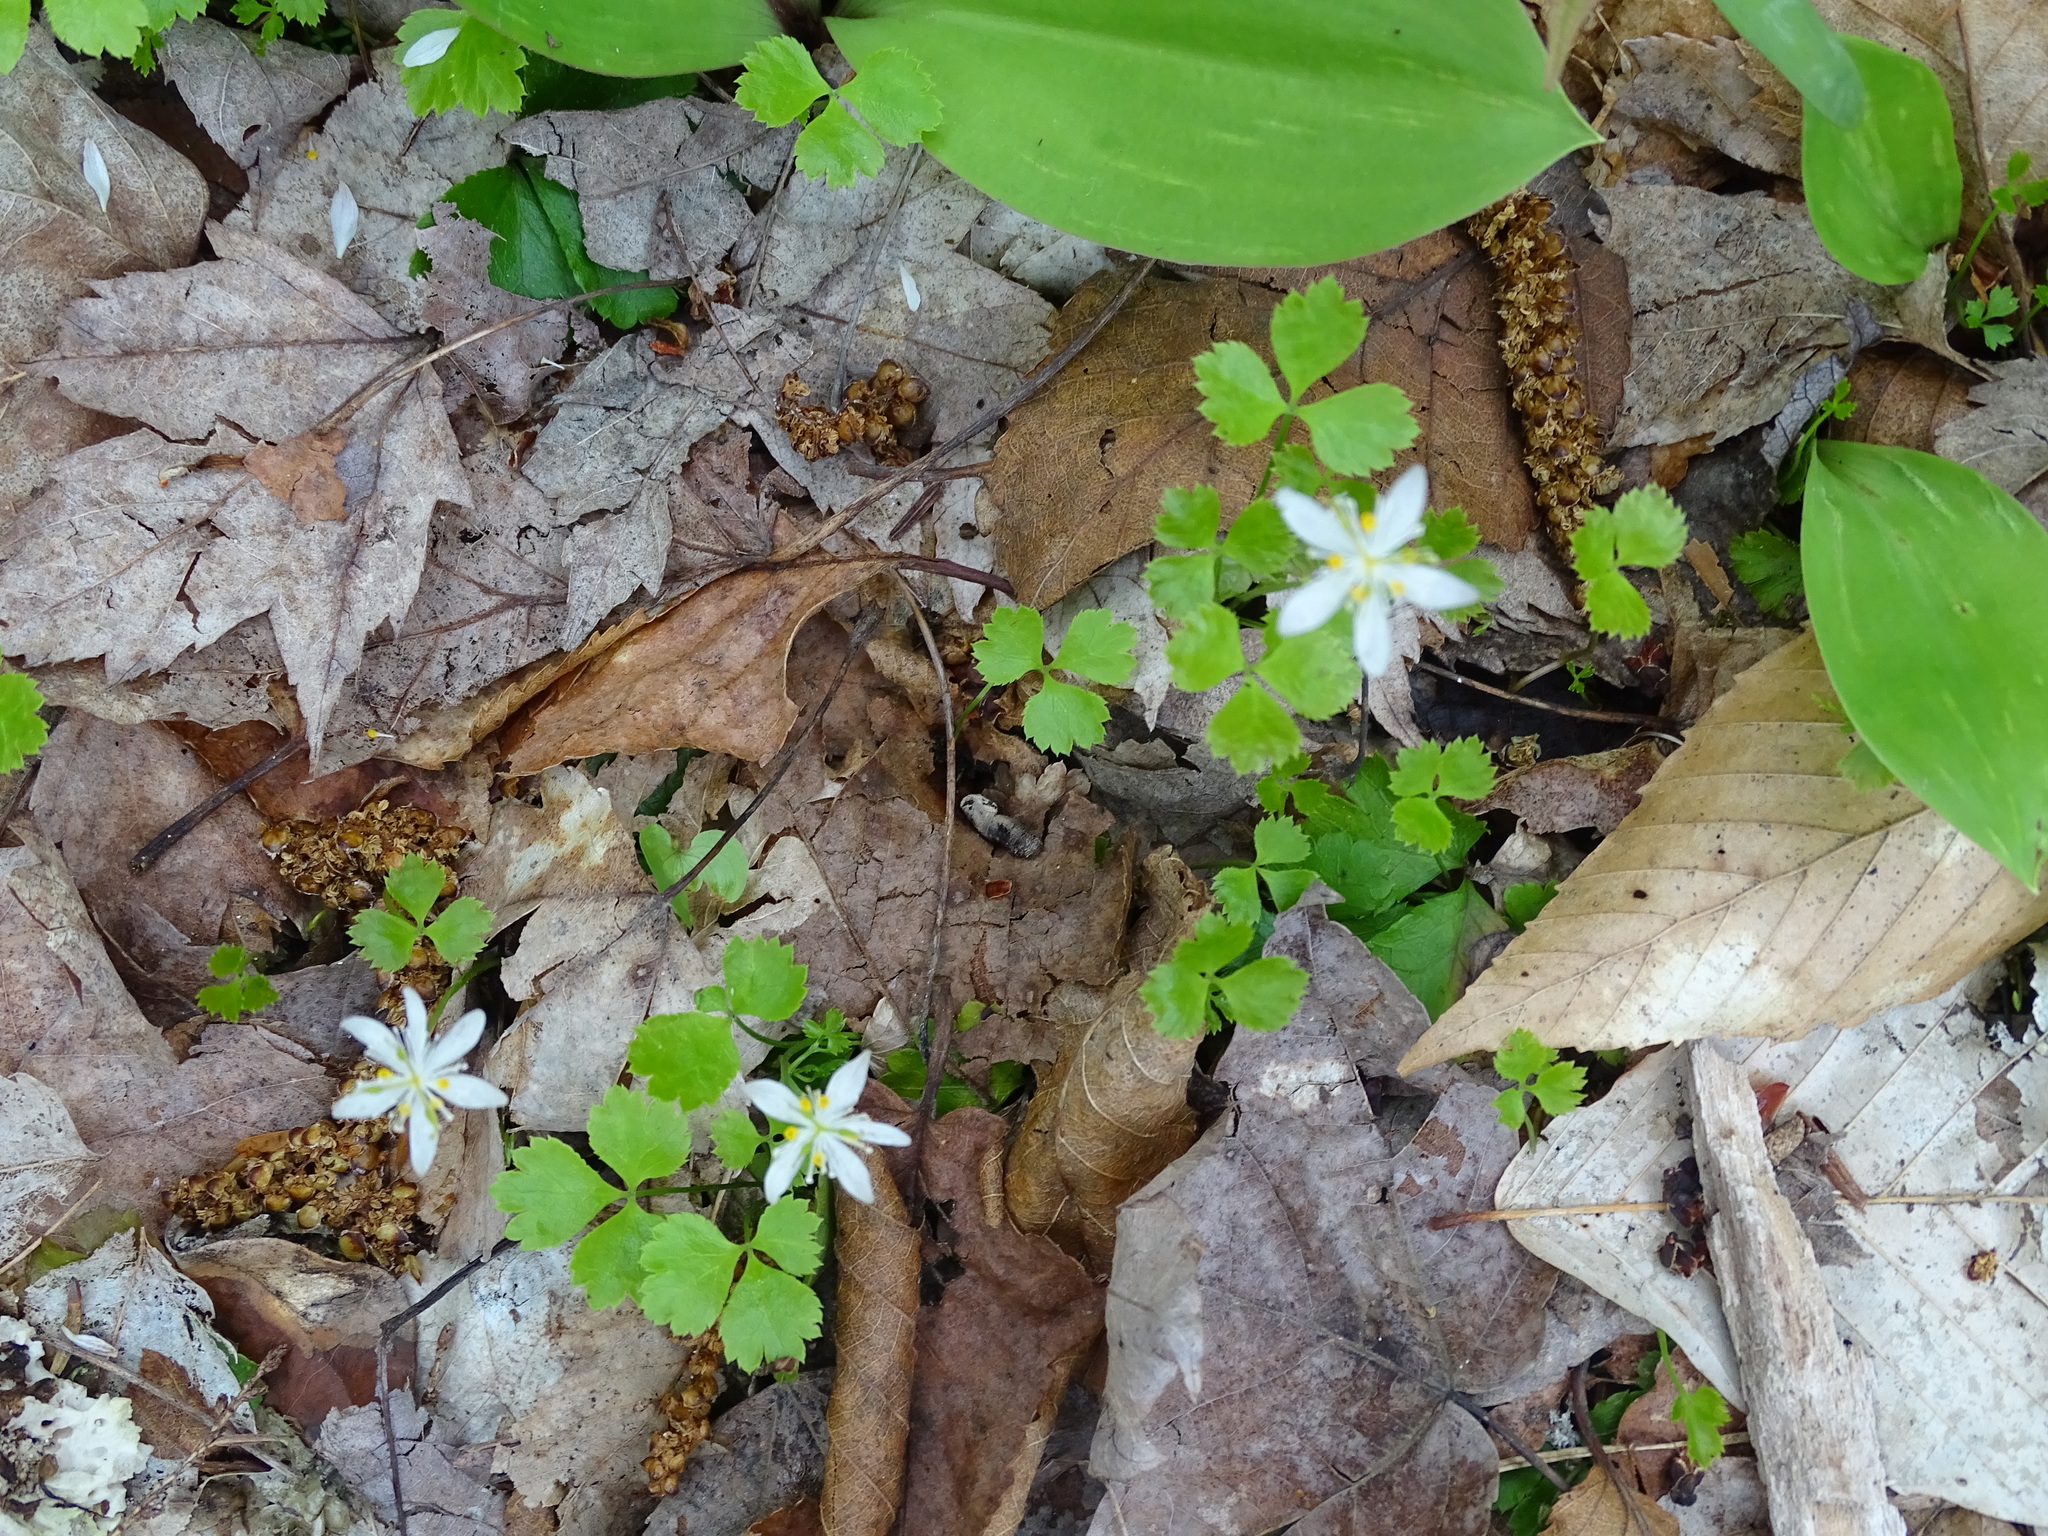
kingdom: Plantae
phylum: Tracheophyta
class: Magnoliopsida
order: Ranunculales
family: Ranunculaceae
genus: Coptis
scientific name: Coptis trifolia
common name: Canker-root
